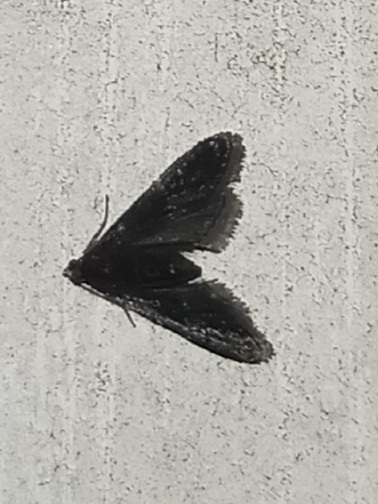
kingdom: Animalia
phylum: Arthropoda
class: Insecta
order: Lepidoptera
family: Crambidae
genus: Elophila
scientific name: Elophila tinealis
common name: Black duckweed moth
